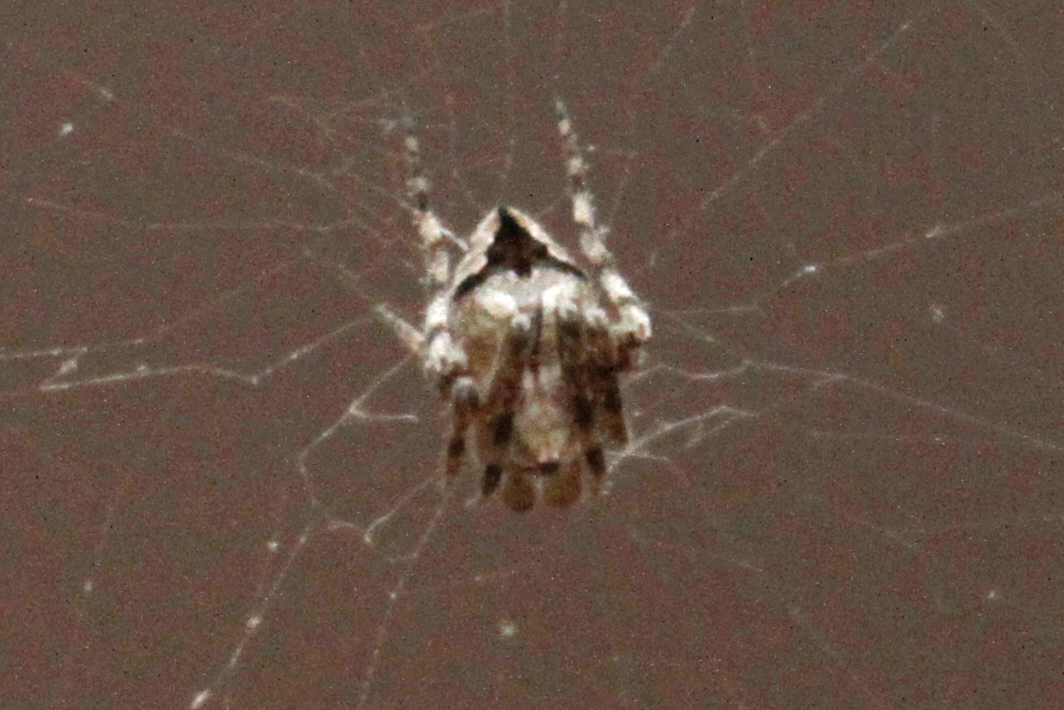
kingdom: Animalia
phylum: Arthropoda
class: Arachnida
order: Araneae
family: Araneidae
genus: Eustala
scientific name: Eustala anastera
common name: Orb weavers
